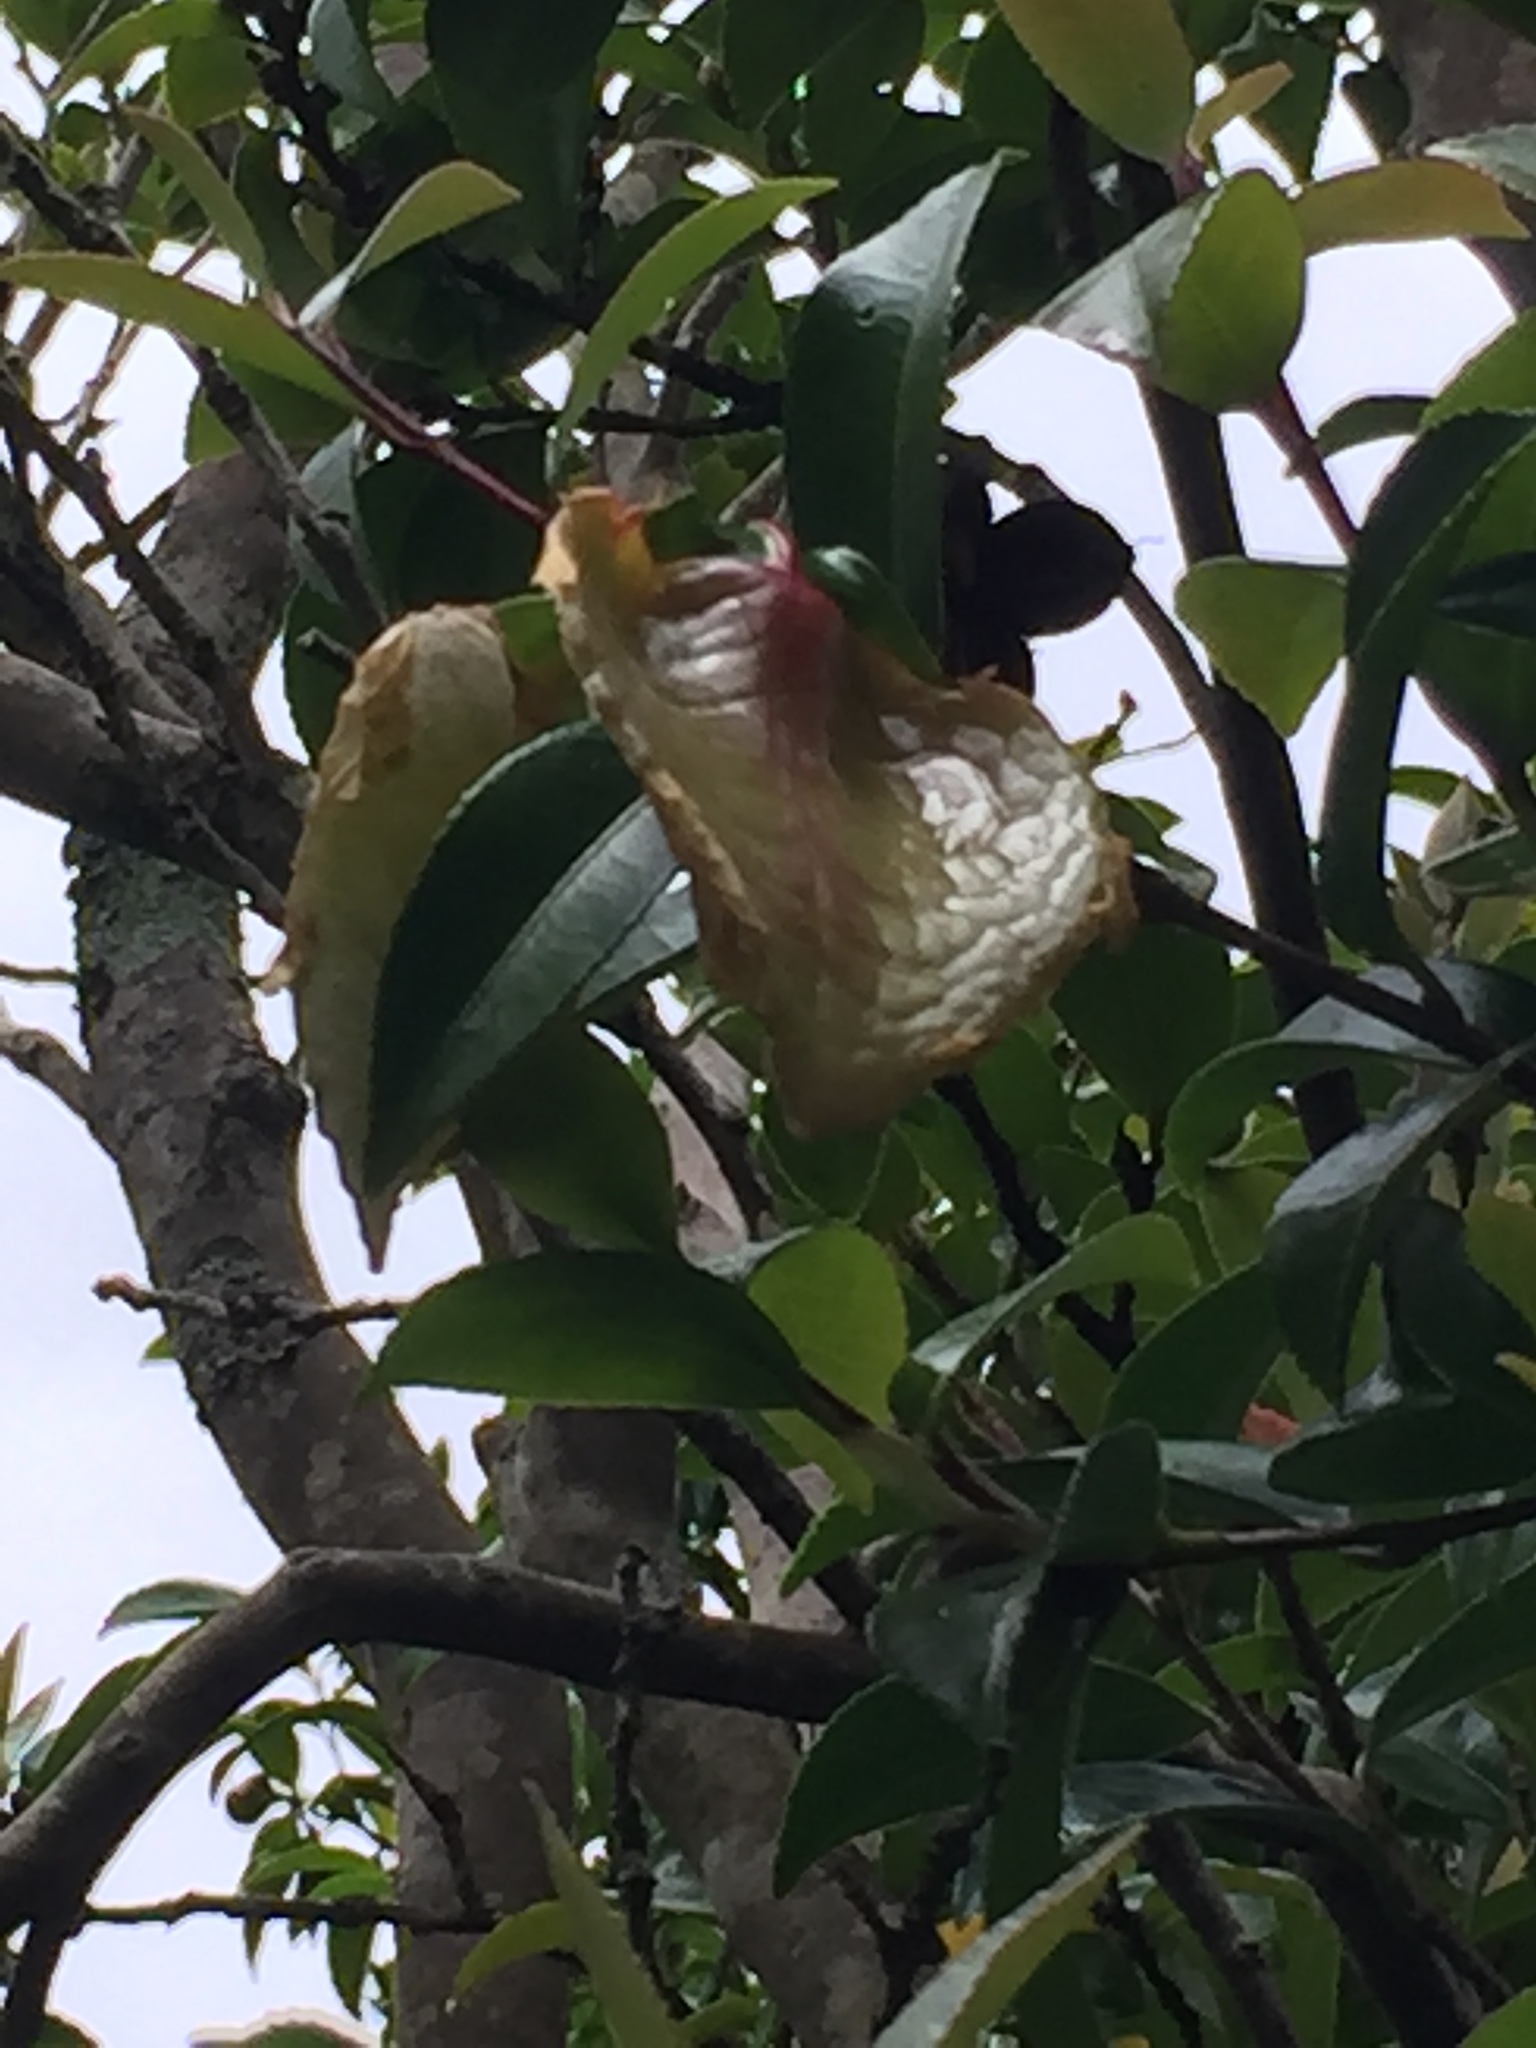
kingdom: Fungi
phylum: Basidiomycota
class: Exobasidiomycetes
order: Exobasidiales
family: Exobasidiaceae
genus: Exobasidium
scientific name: Exobasidium camelliae
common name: Camellia gall
